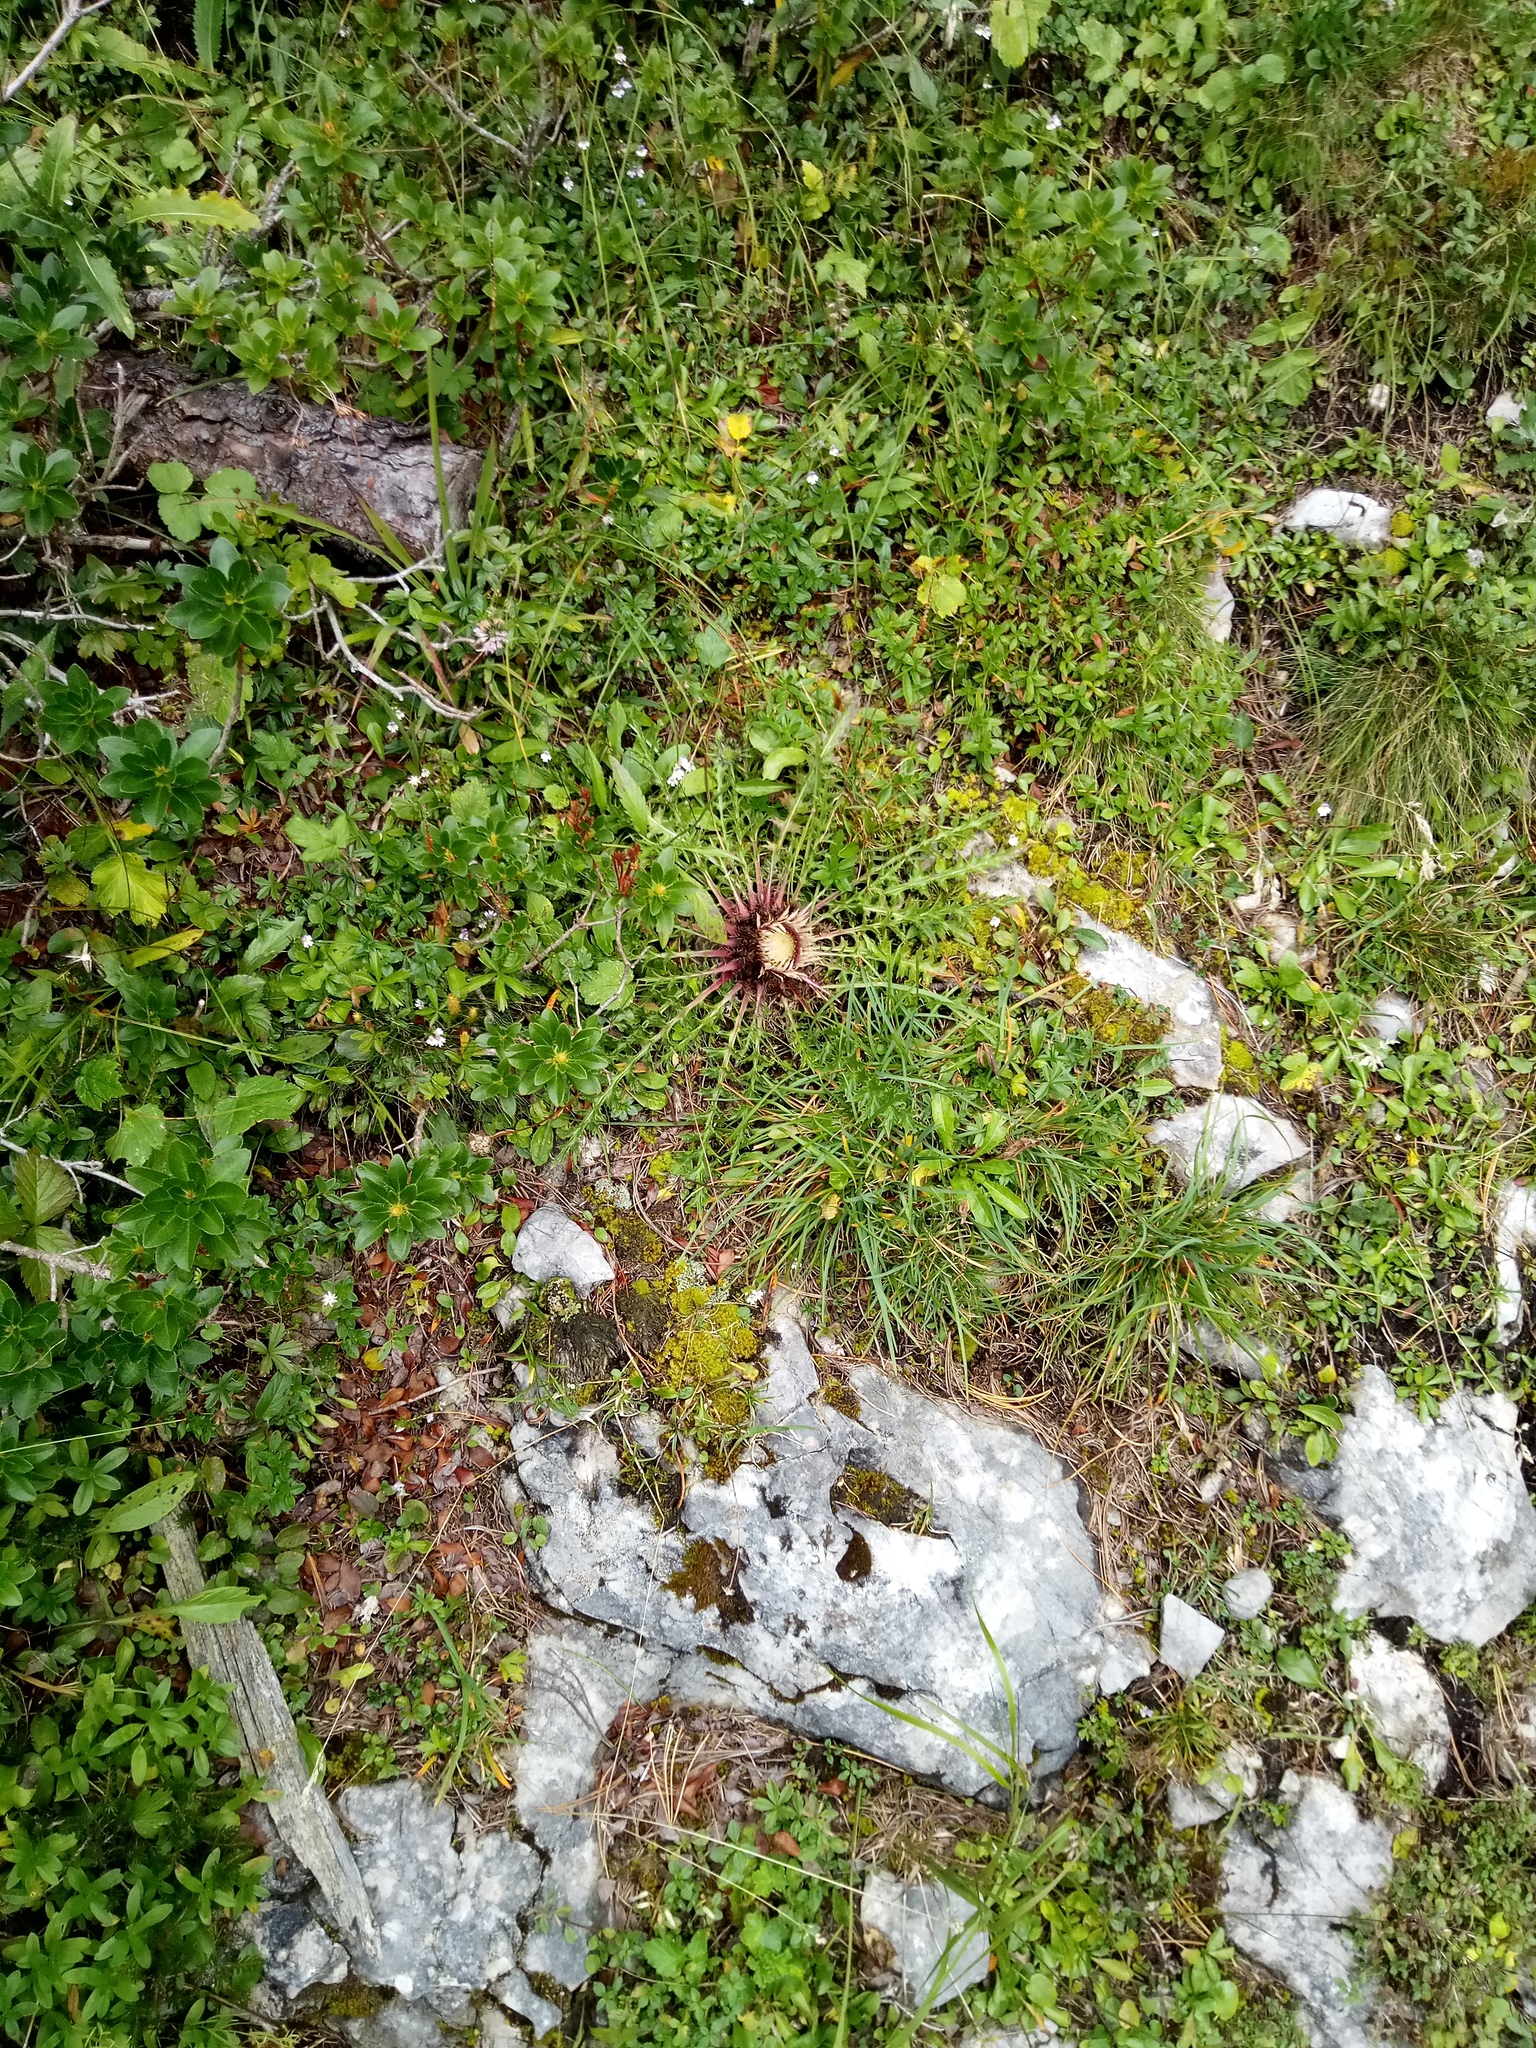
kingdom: Plantae
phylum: Tracheophyta
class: Magnoliopsida
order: Asterales
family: Asteraceae
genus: Carlina
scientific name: Carlina acaulis
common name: Stemless carline thistle
